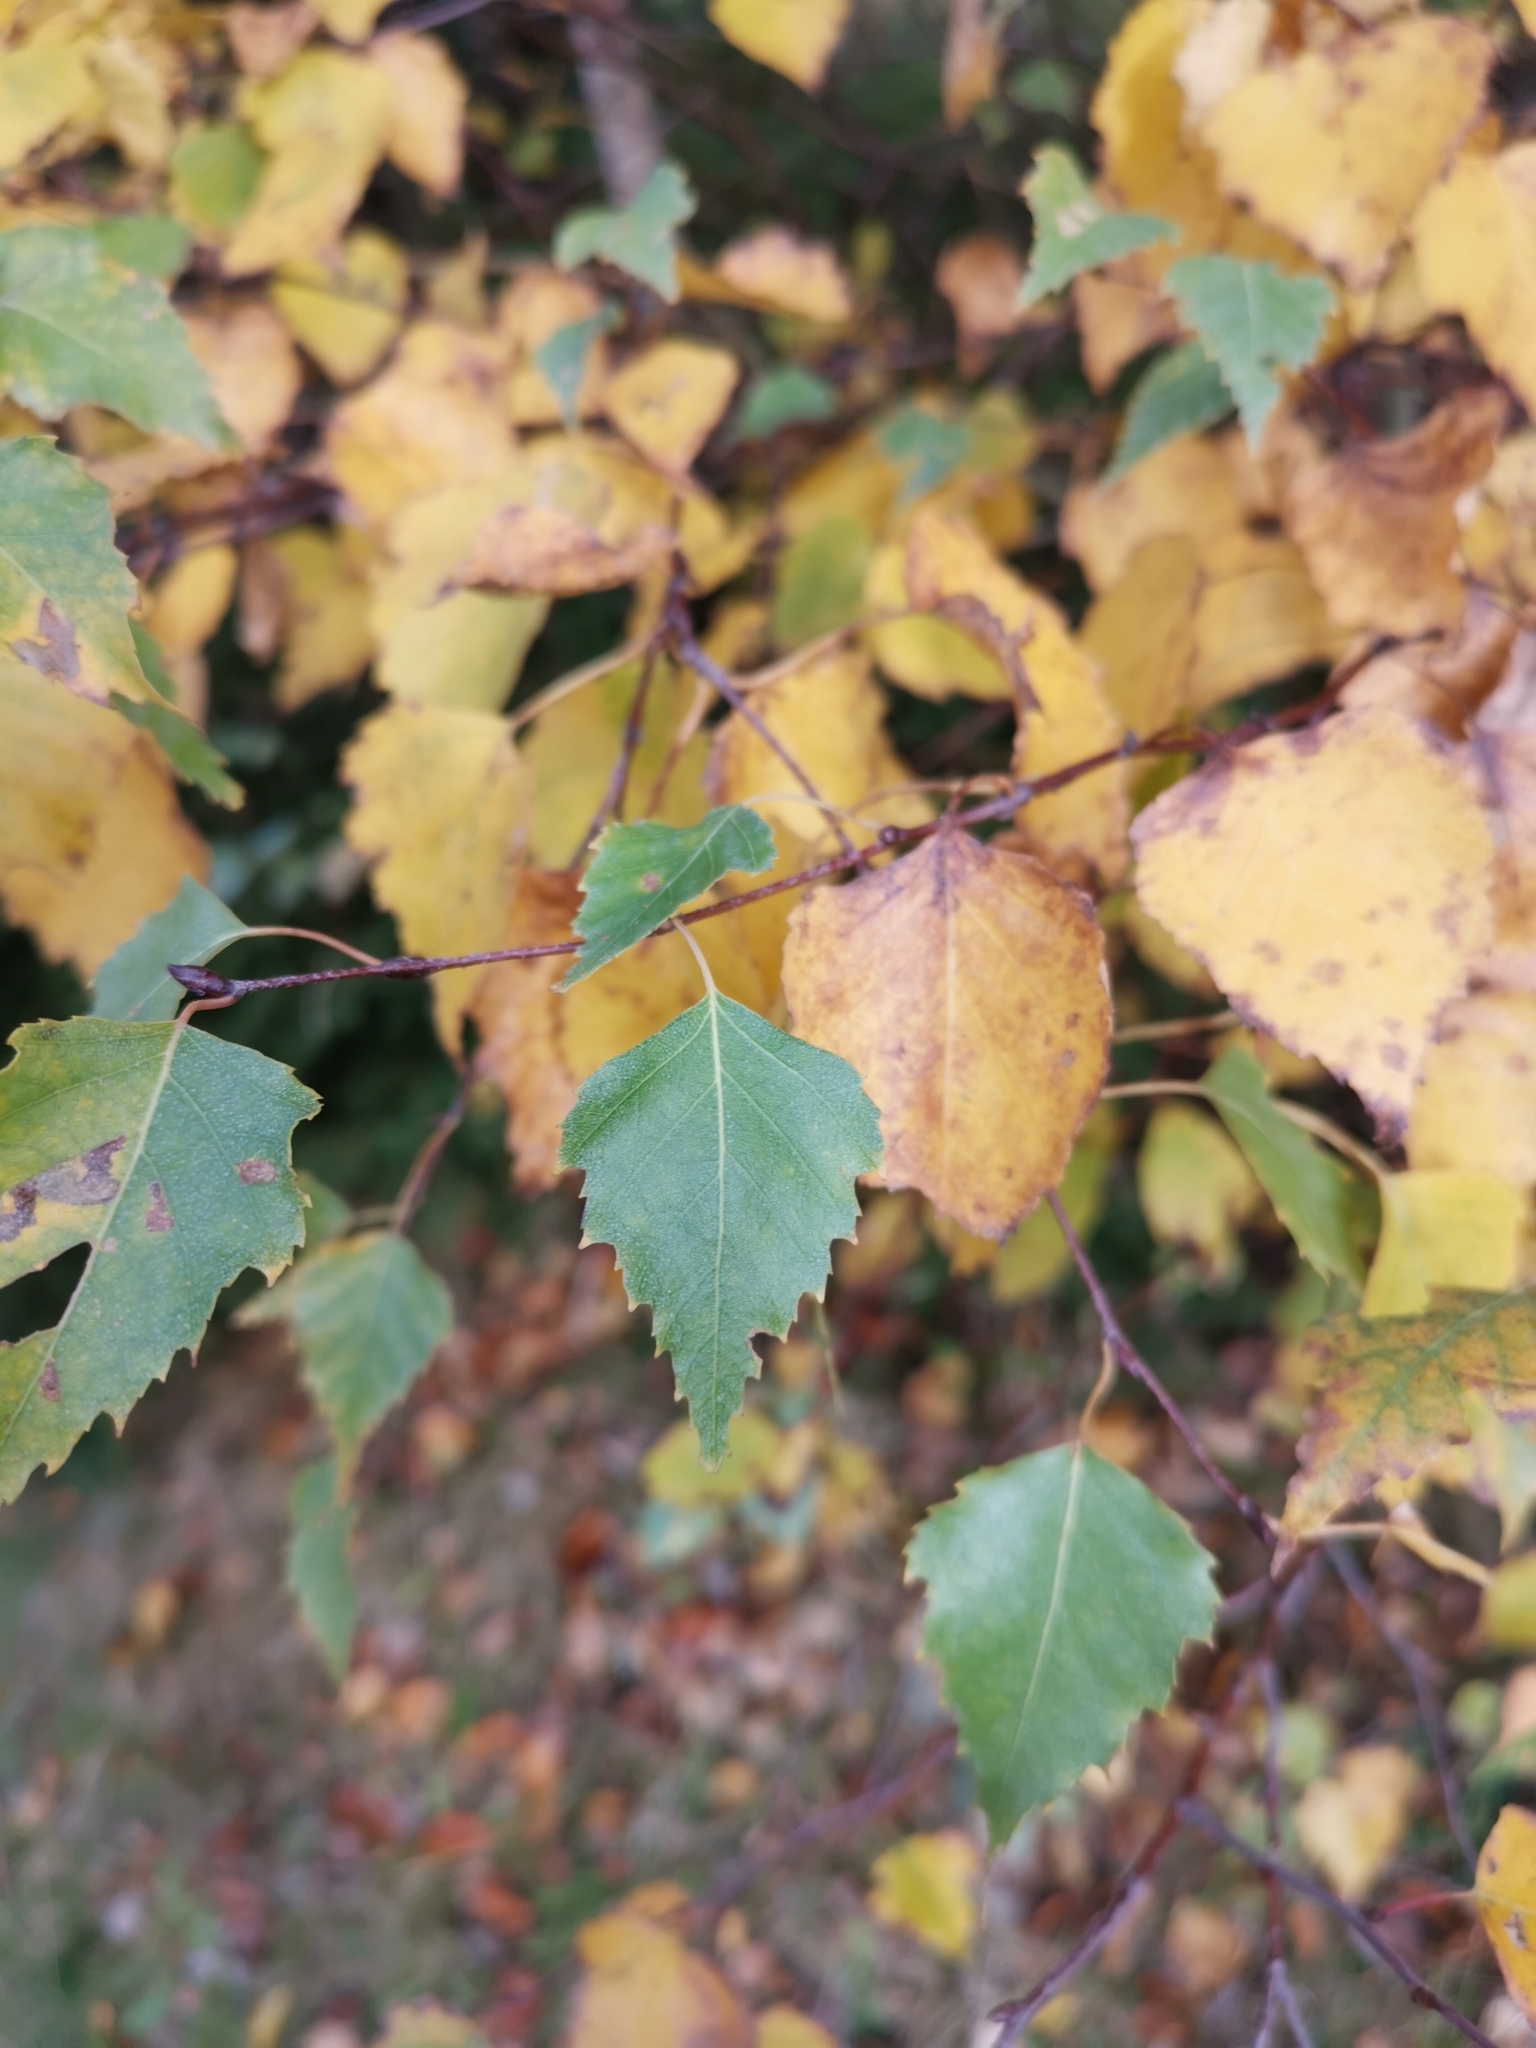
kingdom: Plantae
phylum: Tracheophyta
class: Magnoliopsida
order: Fagales
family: Betulaceae
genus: Betula
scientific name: Betula pendula
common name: Silver birch
